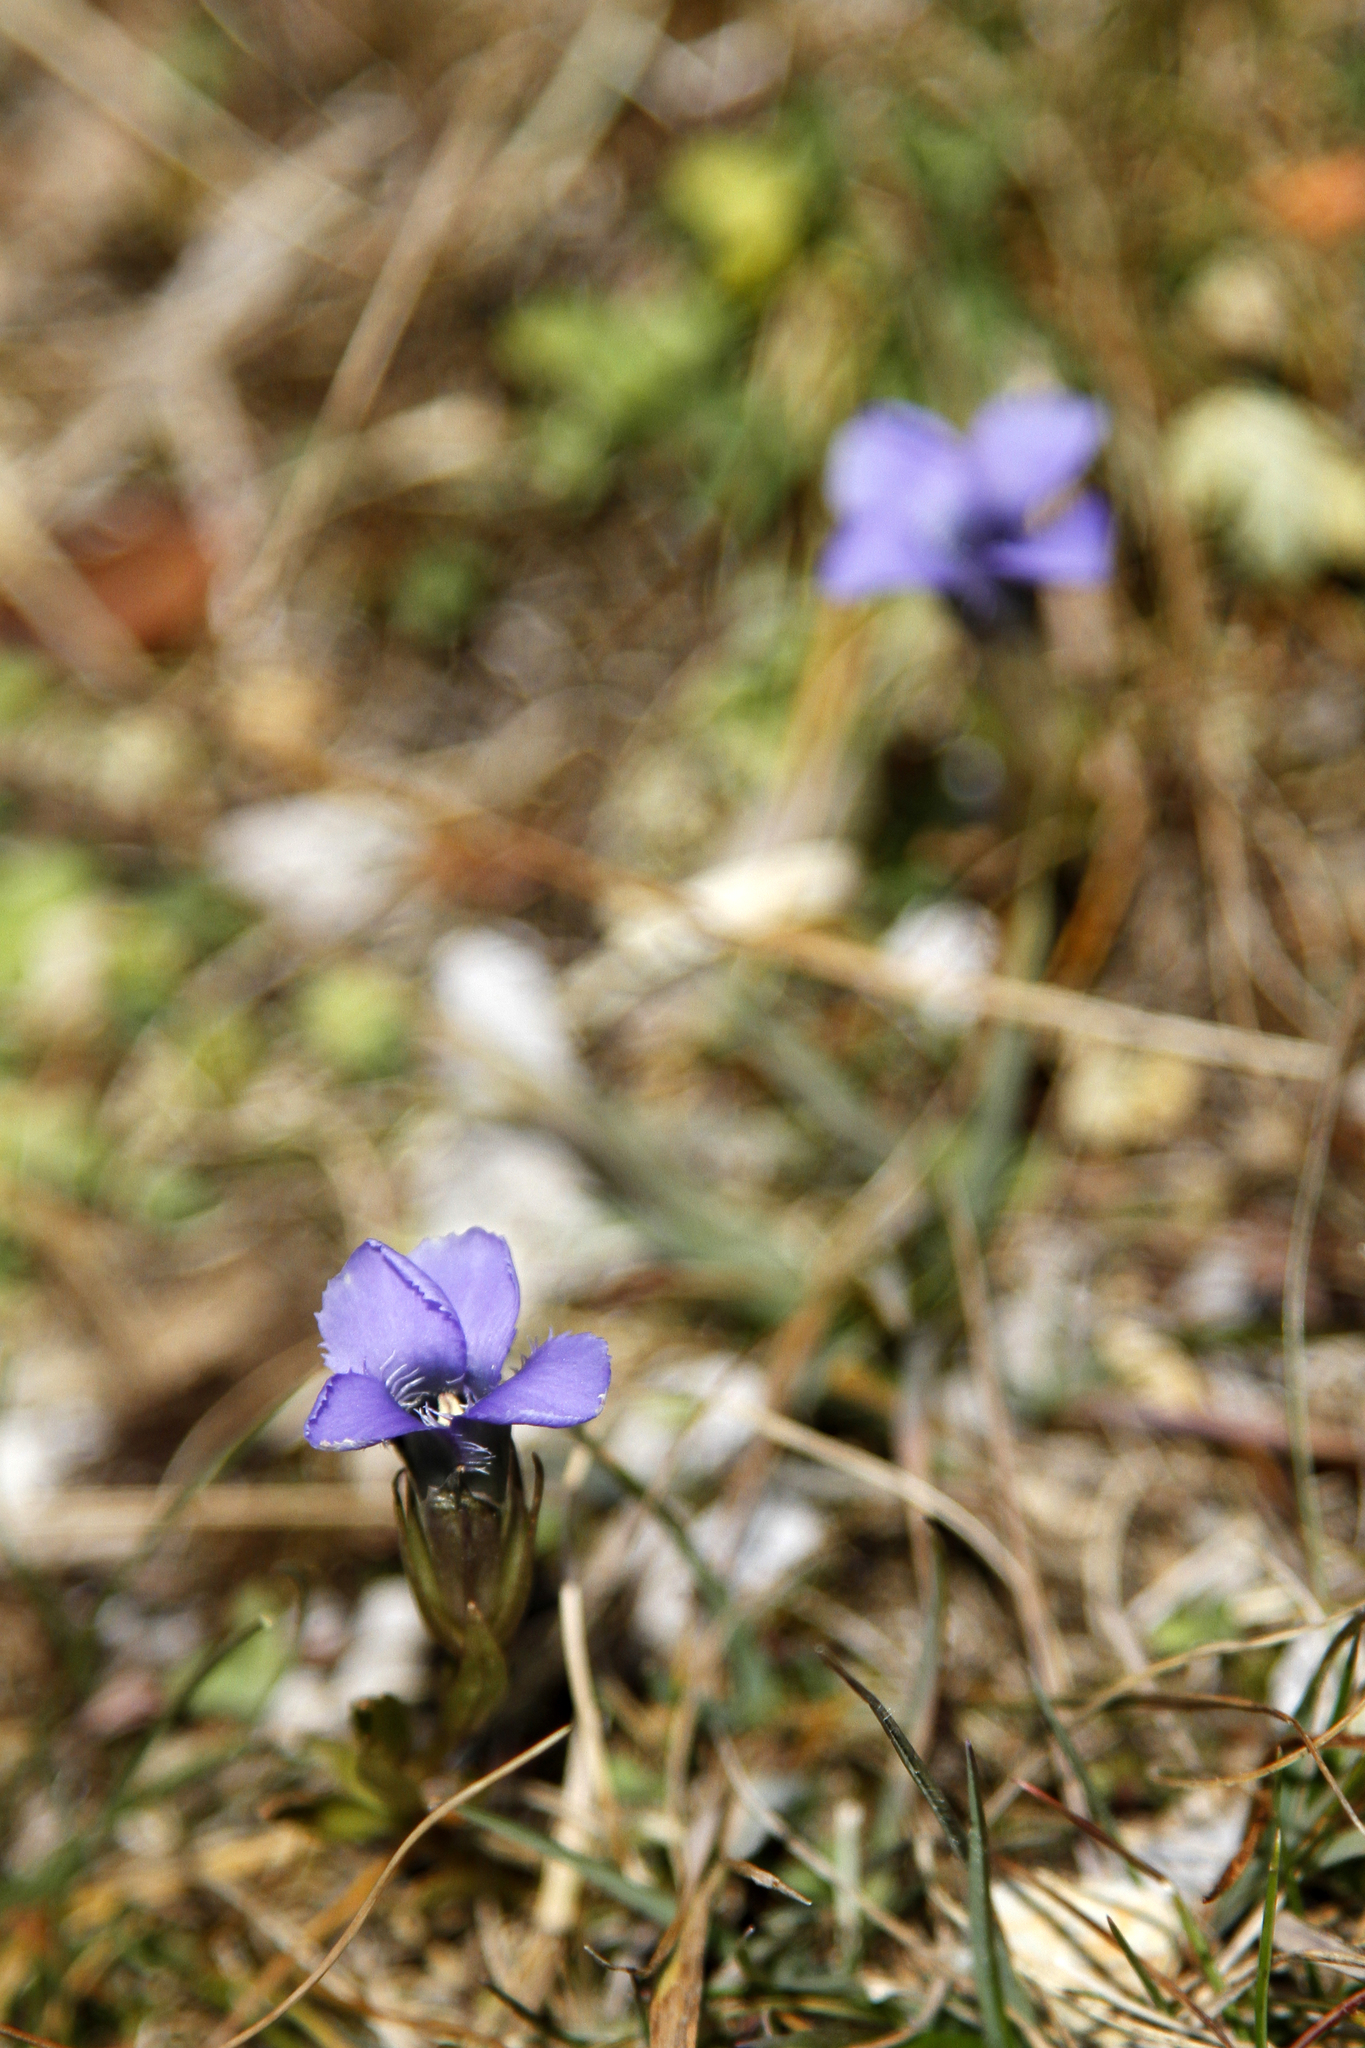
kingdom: Plantae
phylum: Tracheophyta
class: Magnoliopsida
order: Gentianales
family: Gentianaceae
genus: Gentianopsis
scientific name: Gentianopsis ciliata
